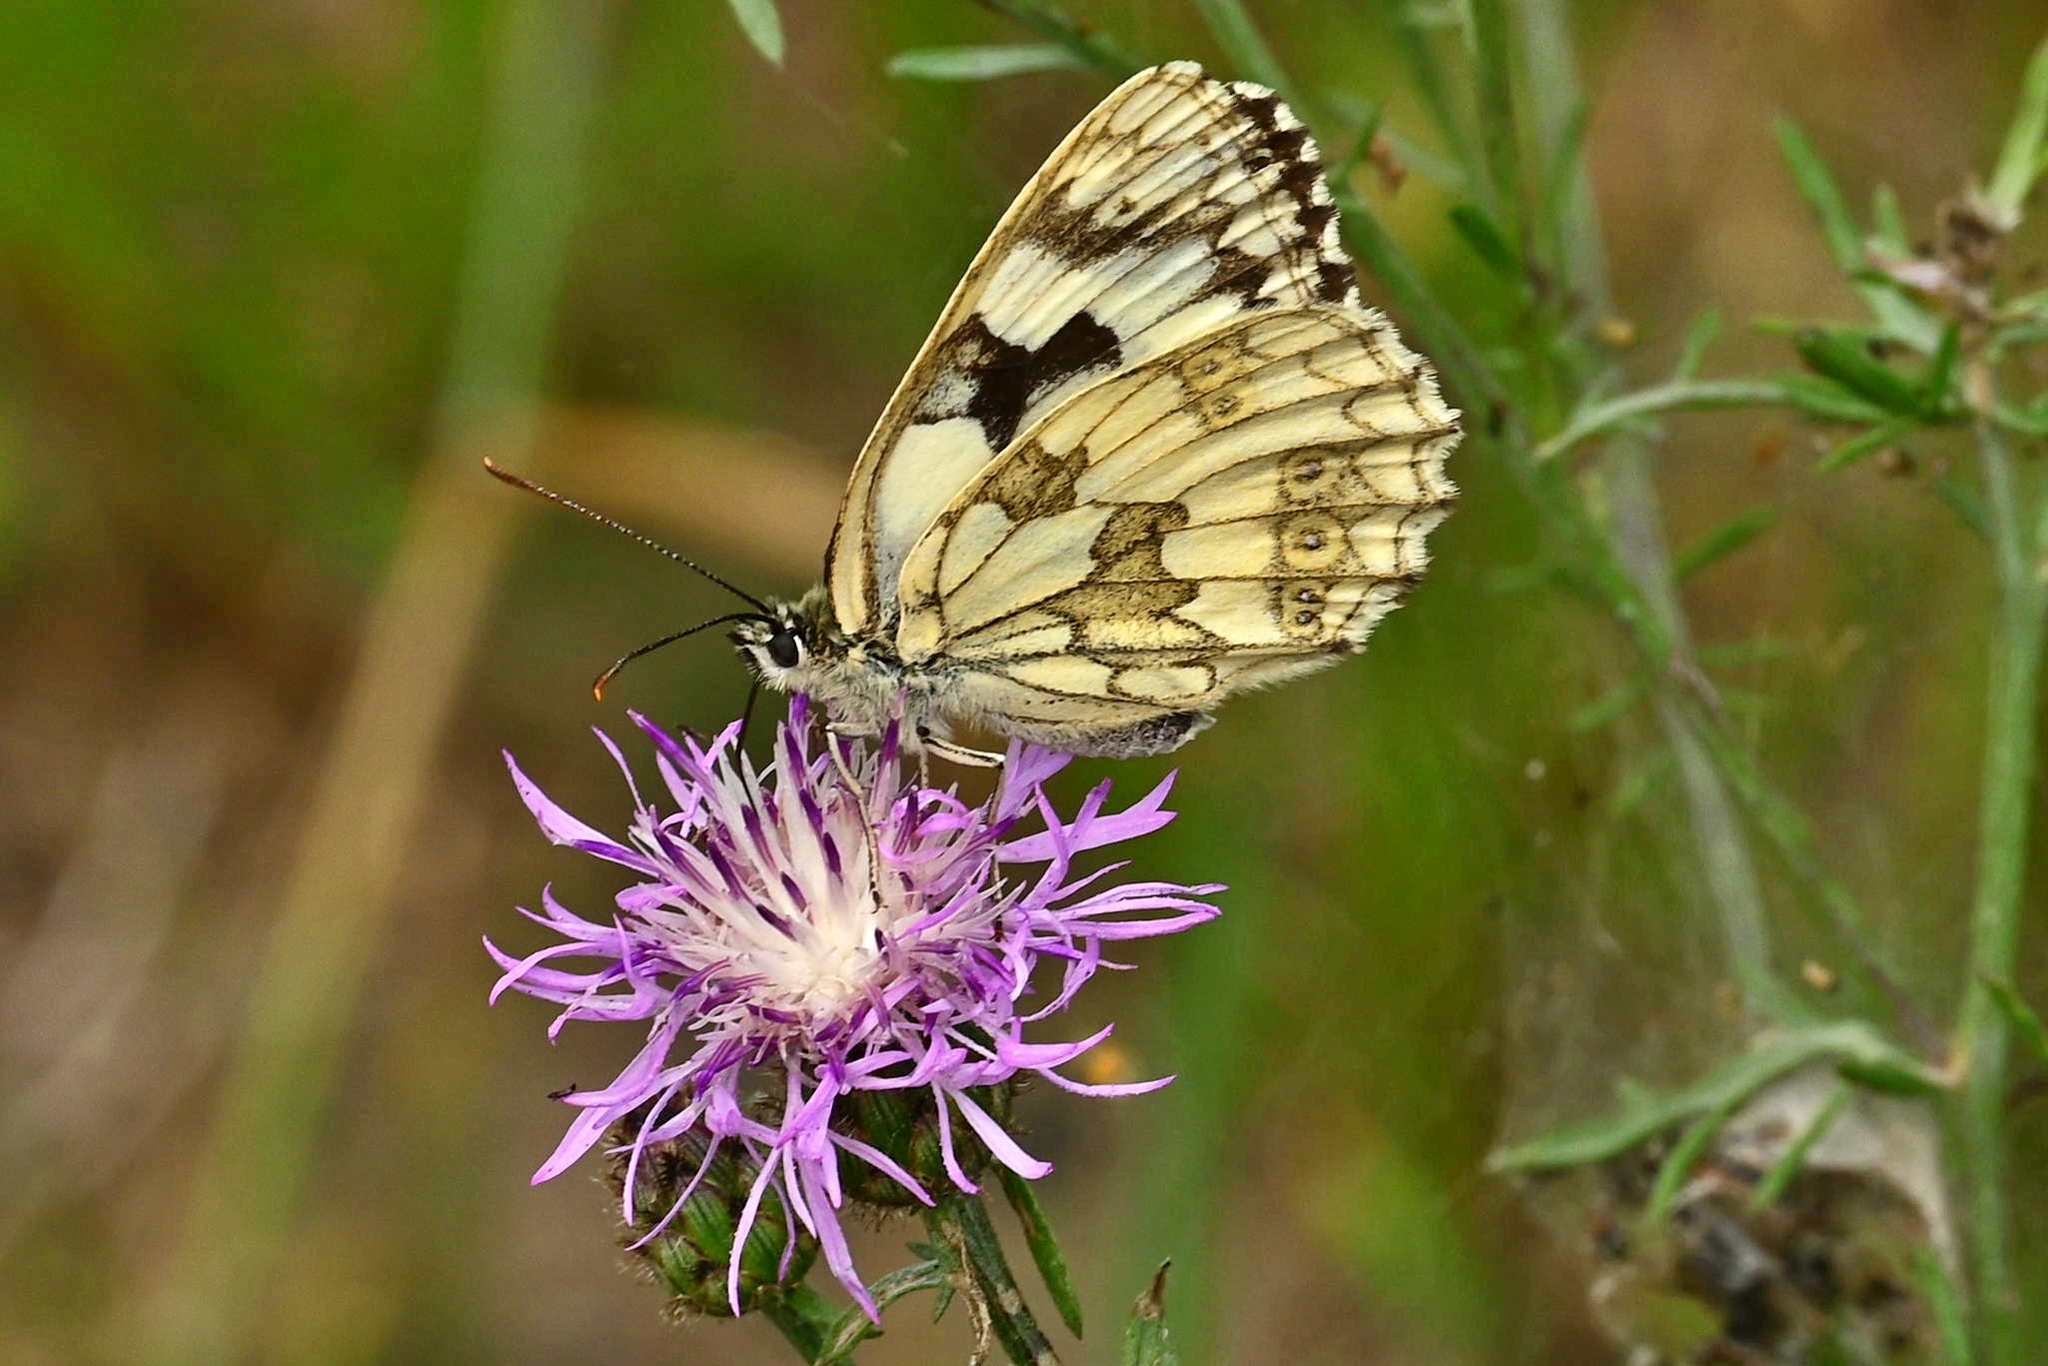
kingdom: Animalia
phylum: Arthropoda
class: Insecta
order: Lepidoptera
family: Nymphalidae
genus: Melanargia
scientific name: Melanargia galathea
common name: Marbled white
